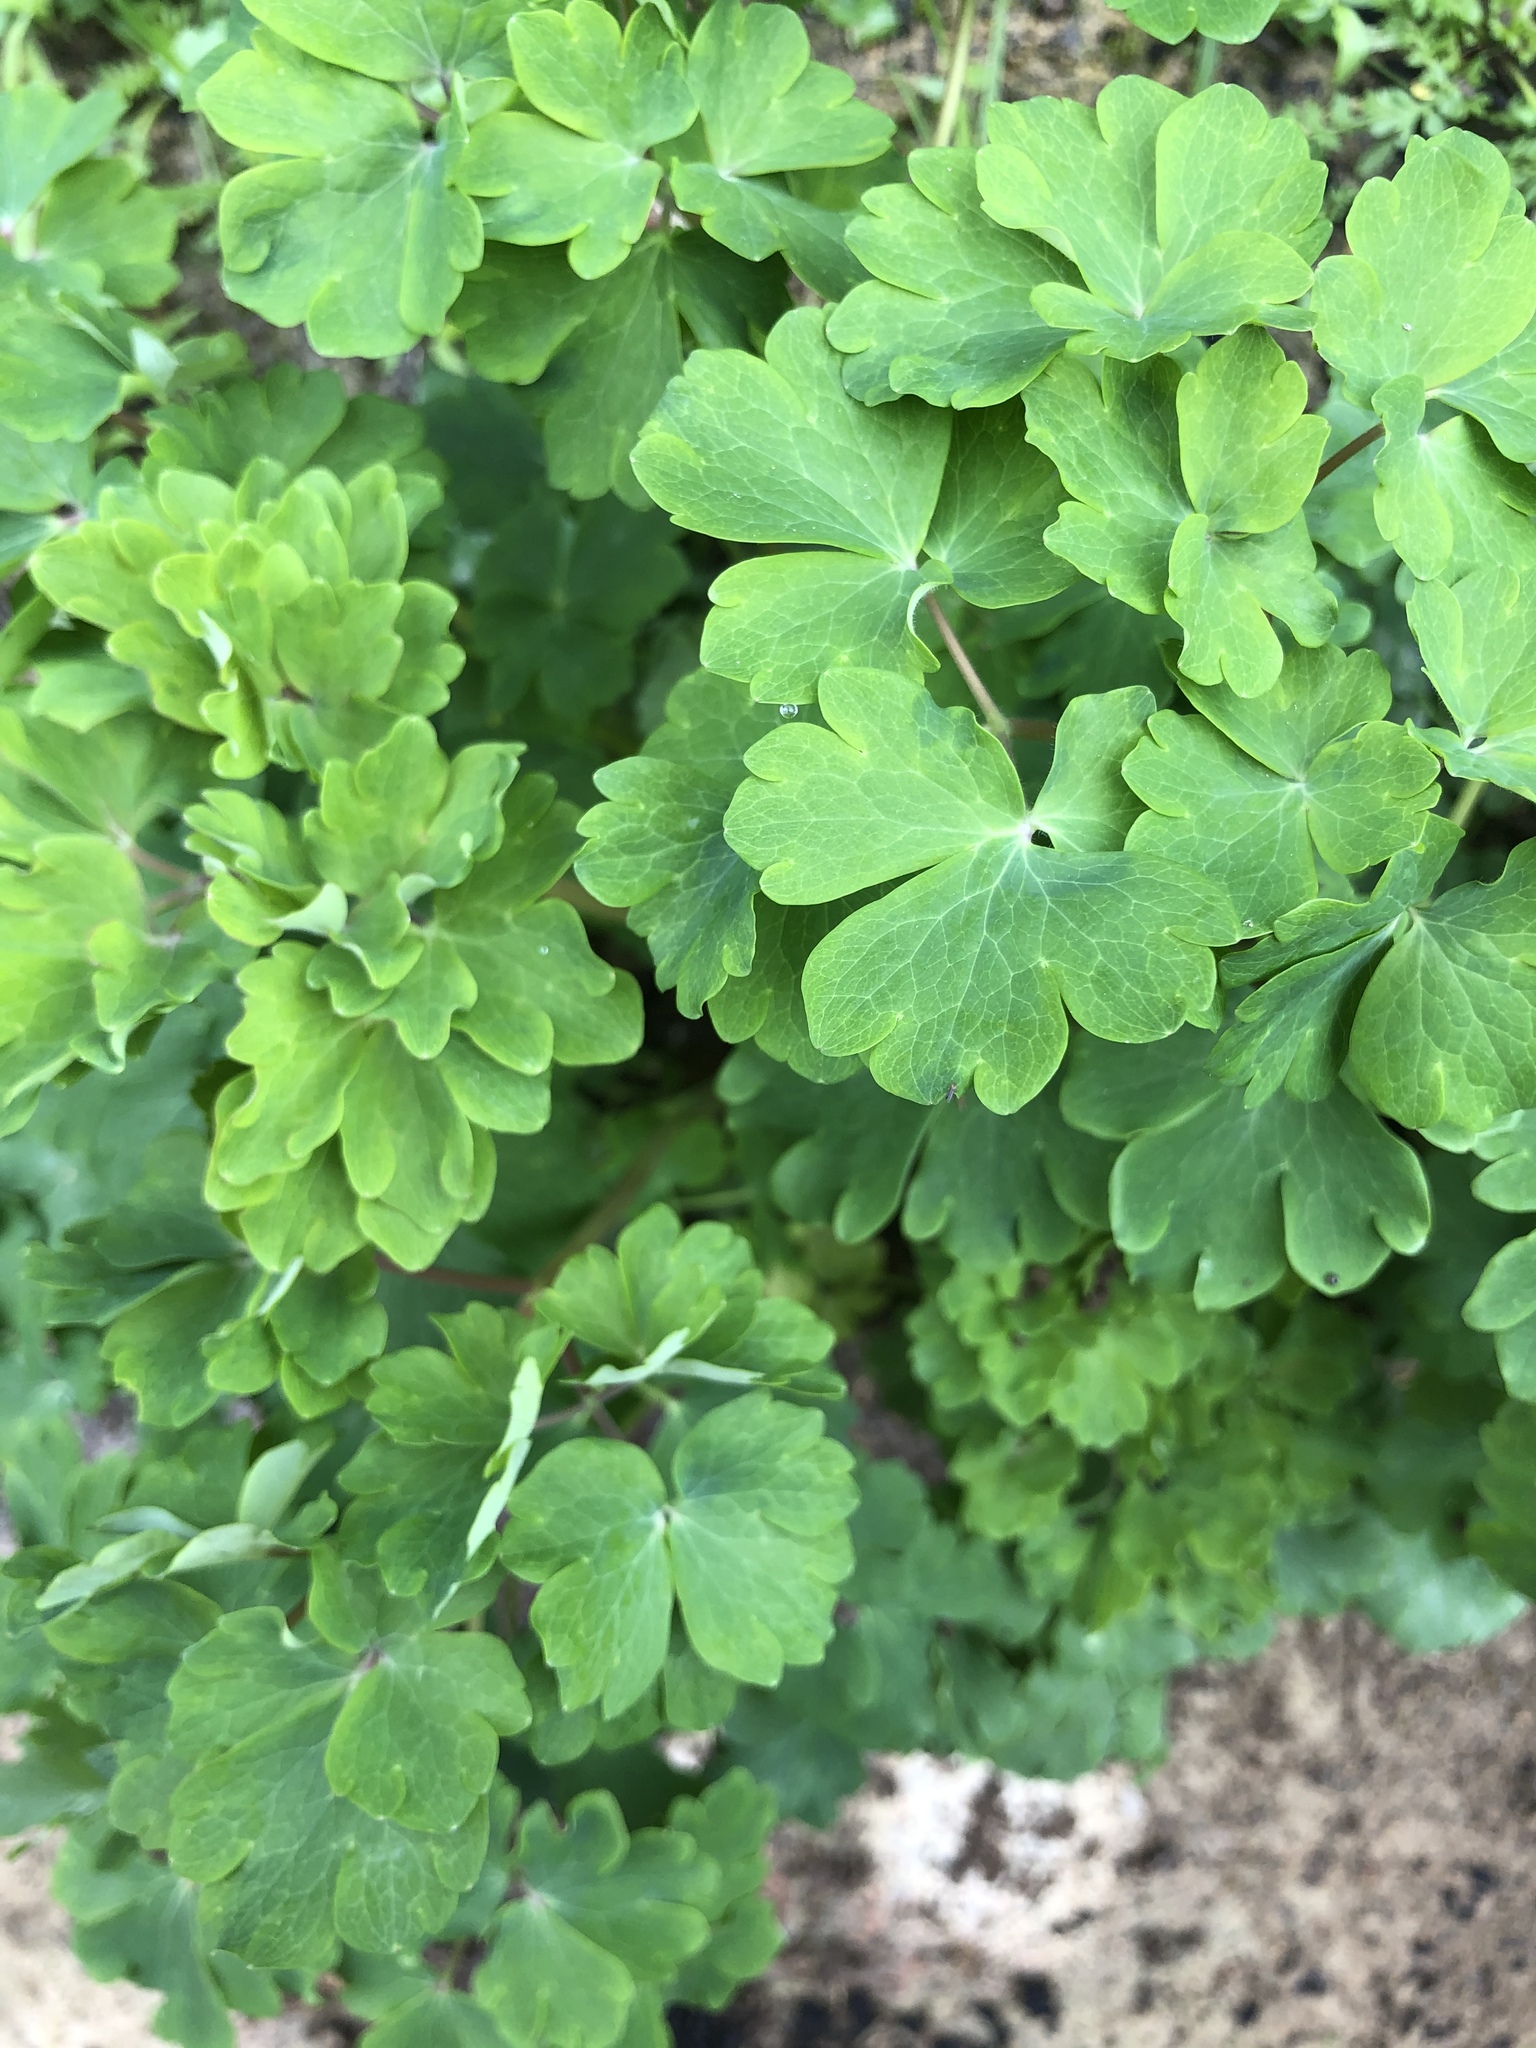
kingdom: Plantae
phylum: Tracheophyta
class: Magnoliopsida
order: Ranunculales
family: Ranunculaceae
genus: Aquilegia
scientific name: Aquilegia vulgaris
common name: Columbine
